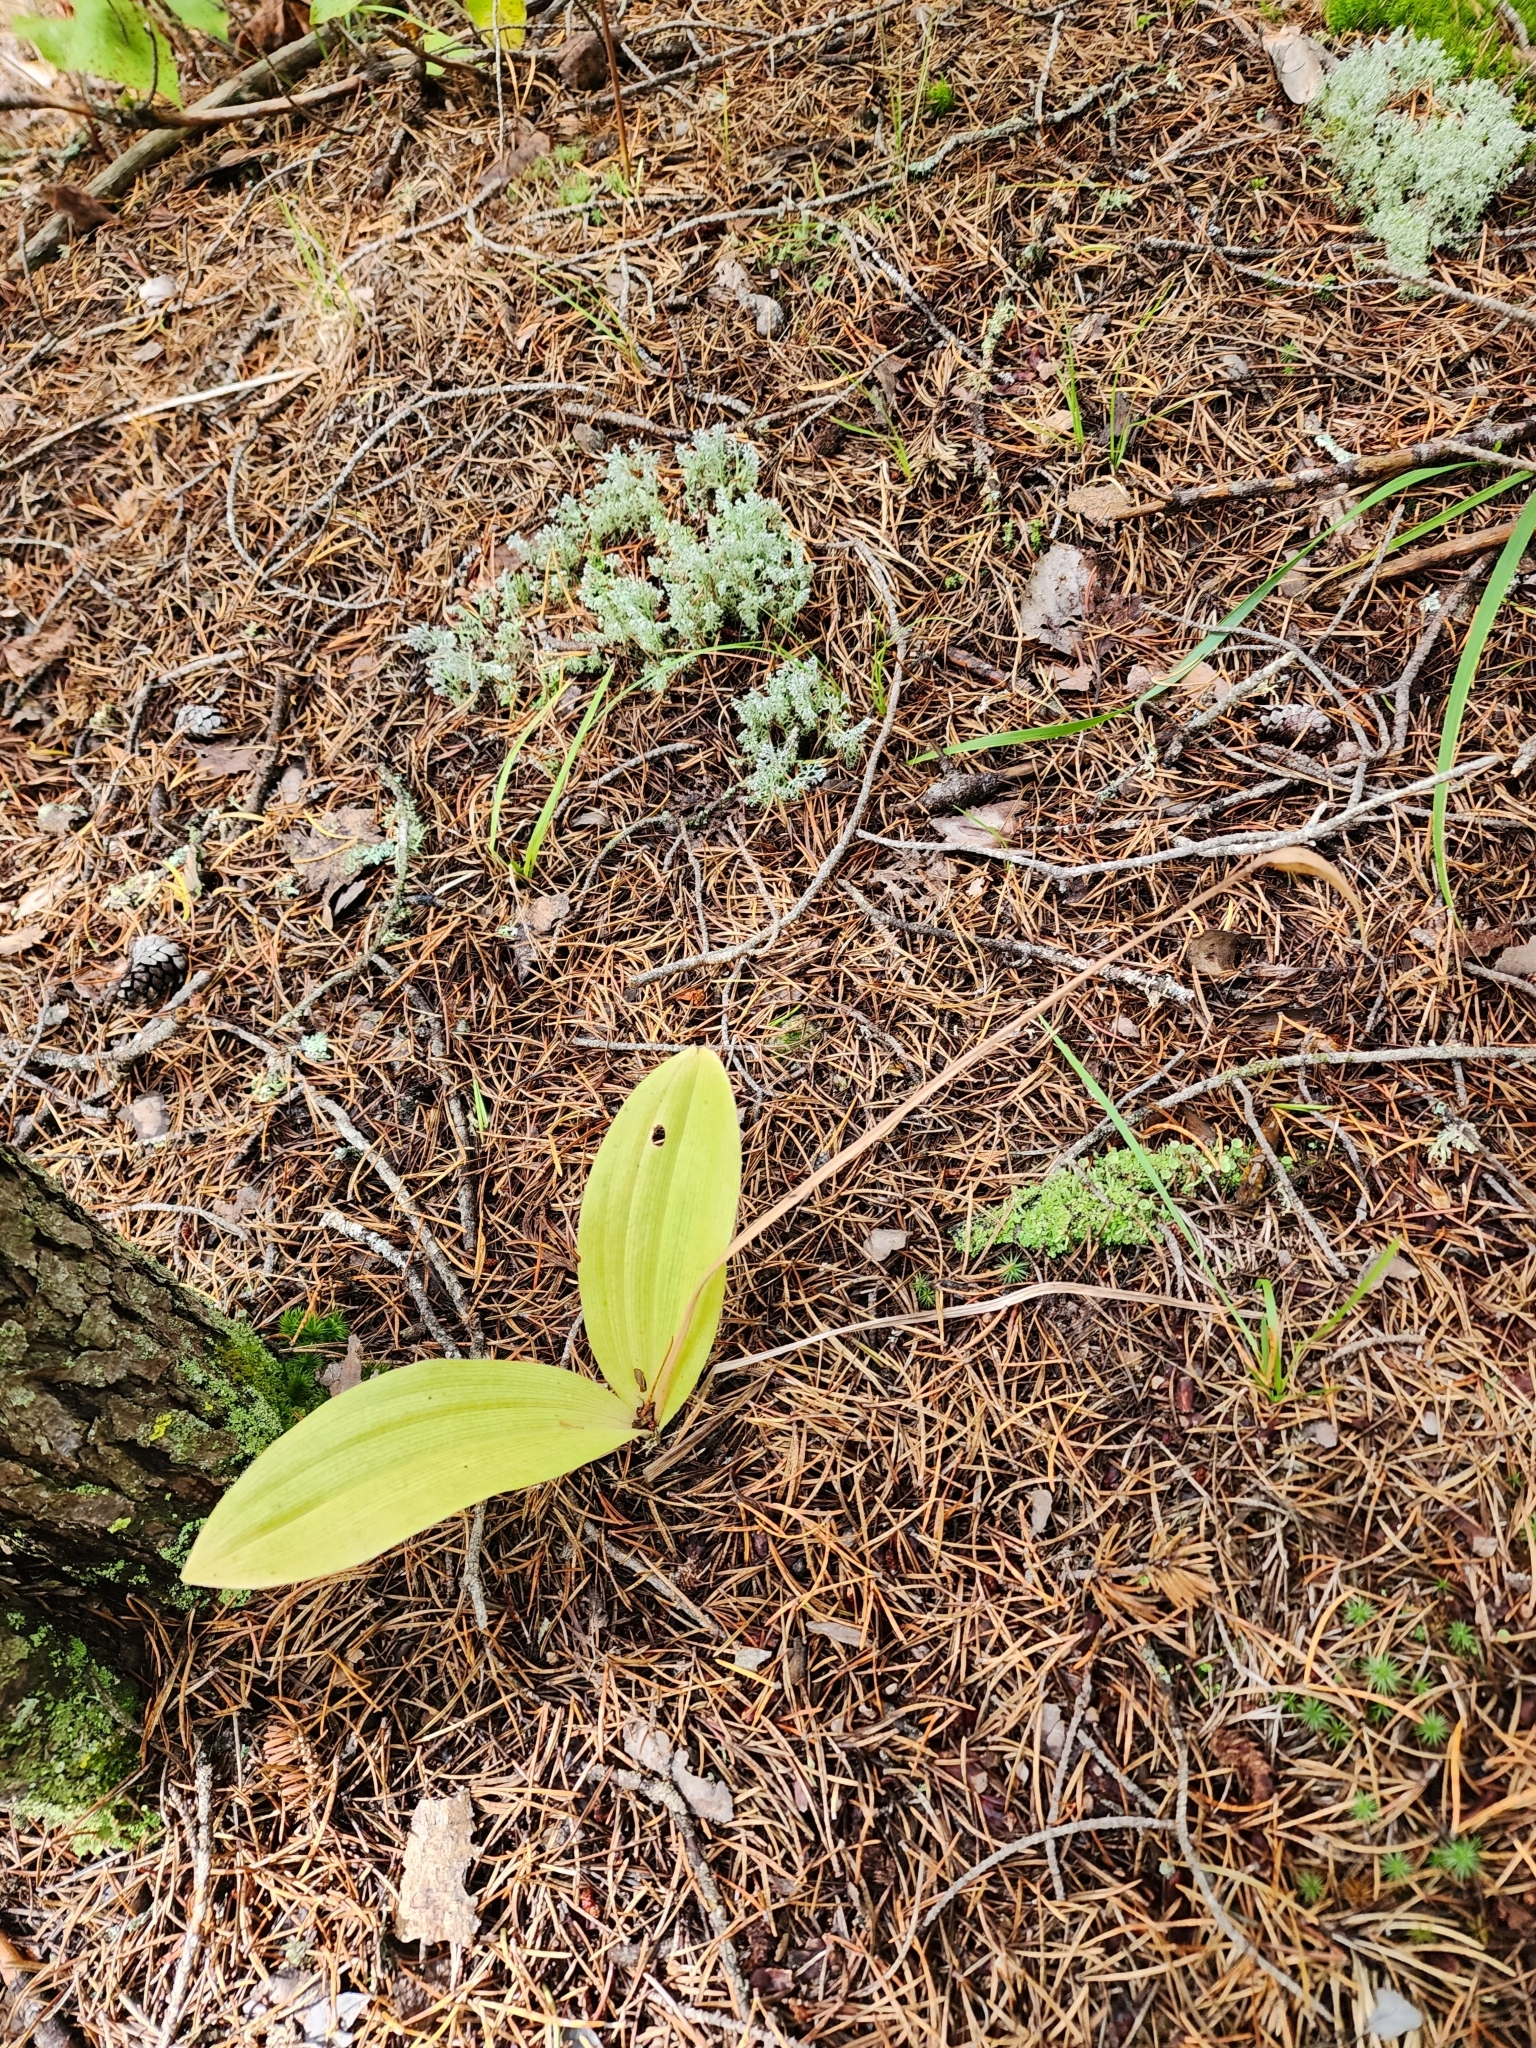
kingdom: Plantae
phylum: Tracheophyta
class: Liliopsida
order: Asparagales
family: Orchidaceae
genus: Cypripedium
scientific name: Cypripedium acaule
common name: Pink lady's-slipper
